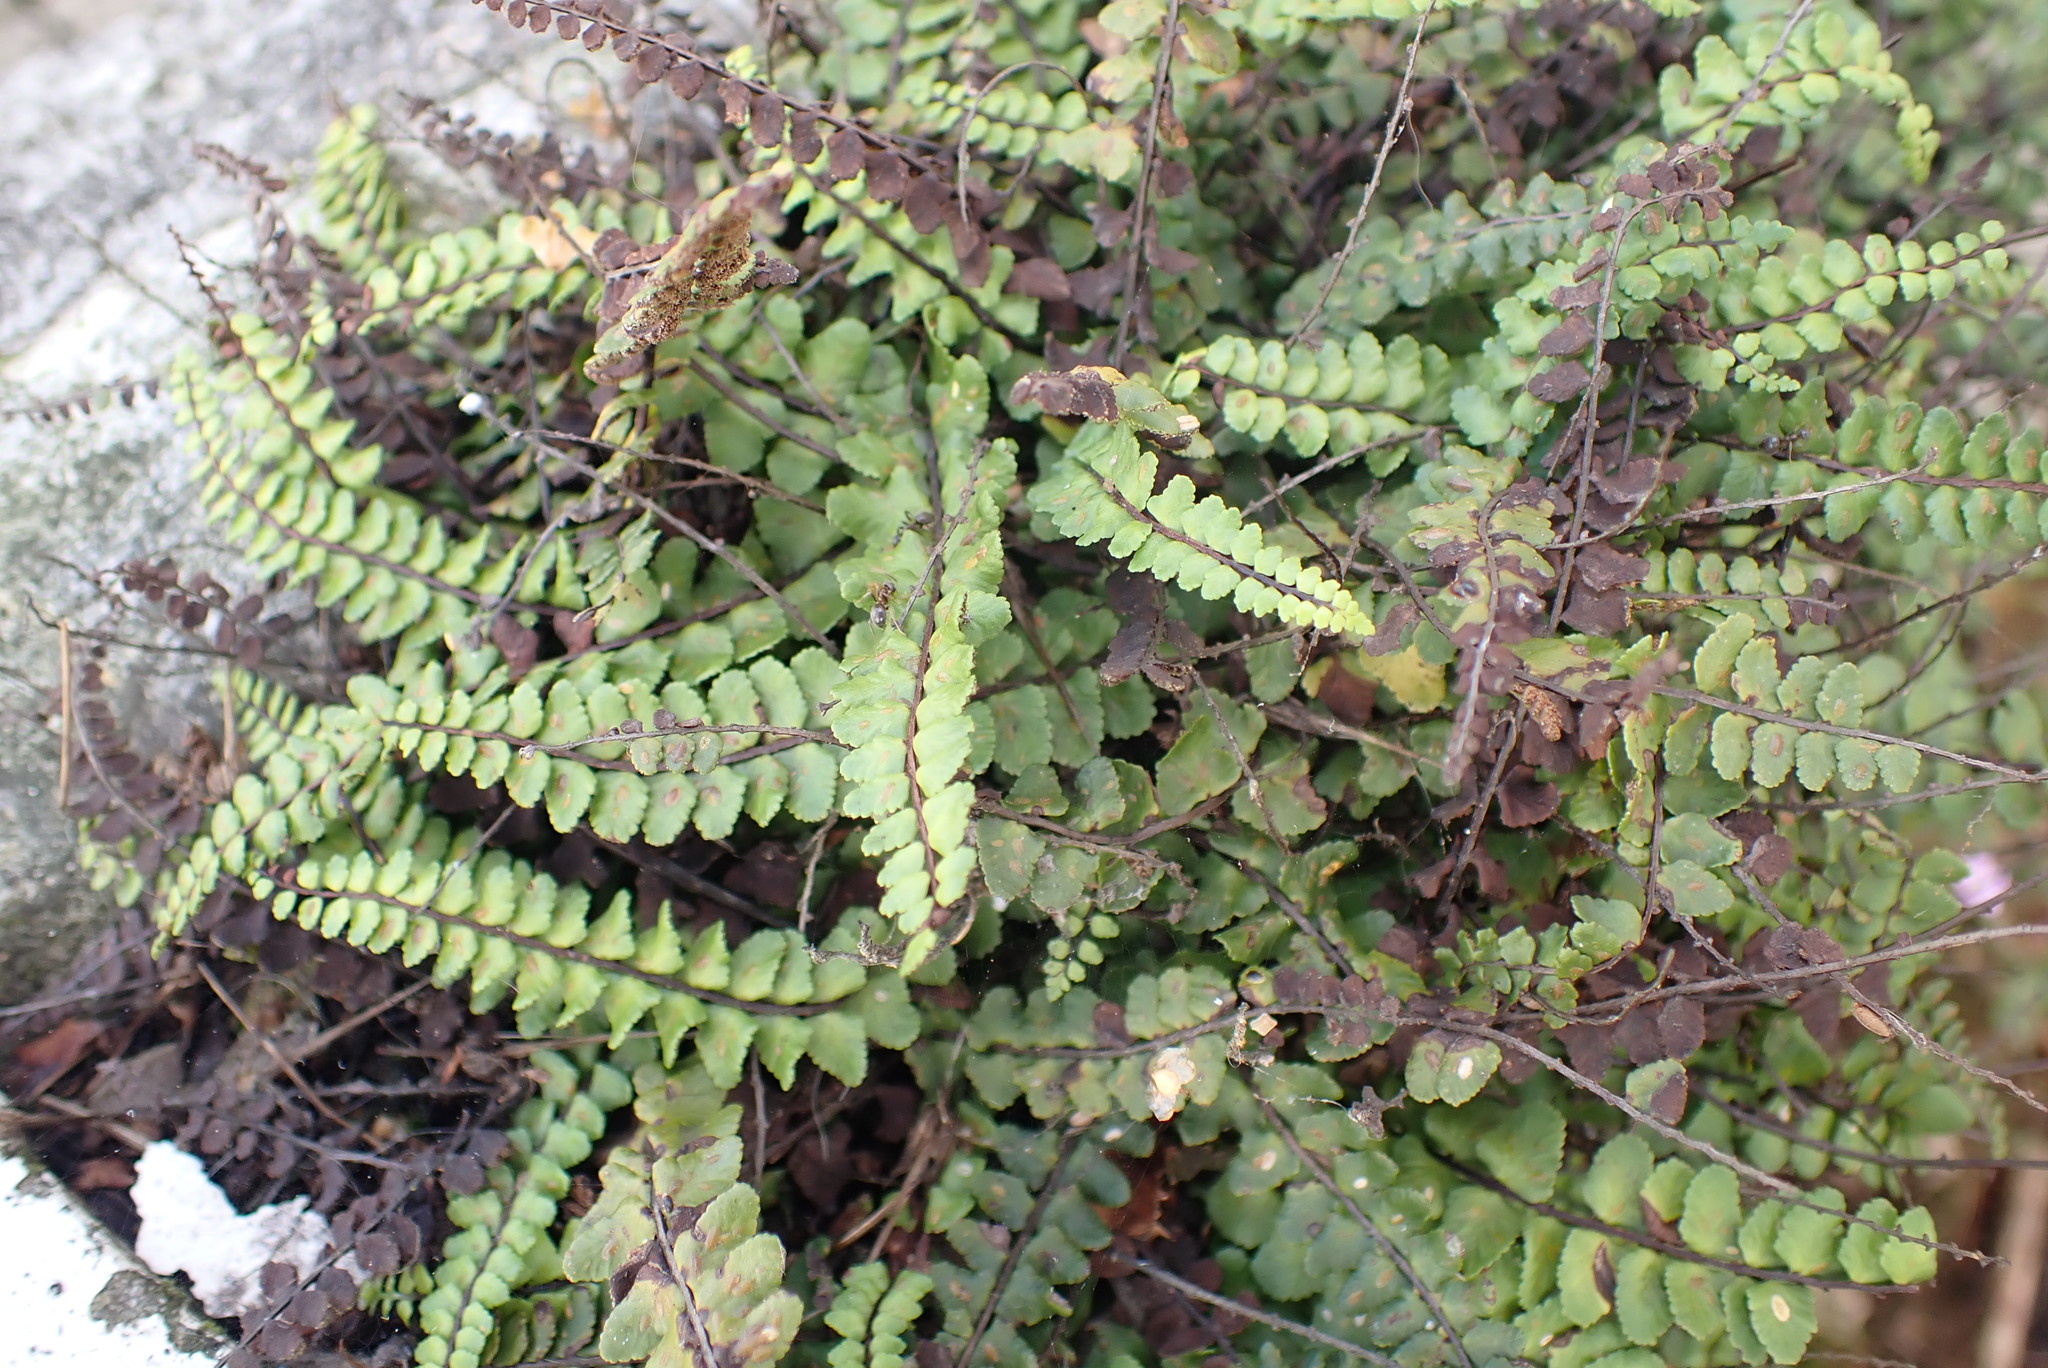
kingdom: Plantae
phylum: Tracheophyta
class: Polypodiopsida
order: Polypodiales
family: Aspleniaceae
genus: Asplenium
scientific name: Asplenium trichomanes
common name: Maidenhair spleenwort
